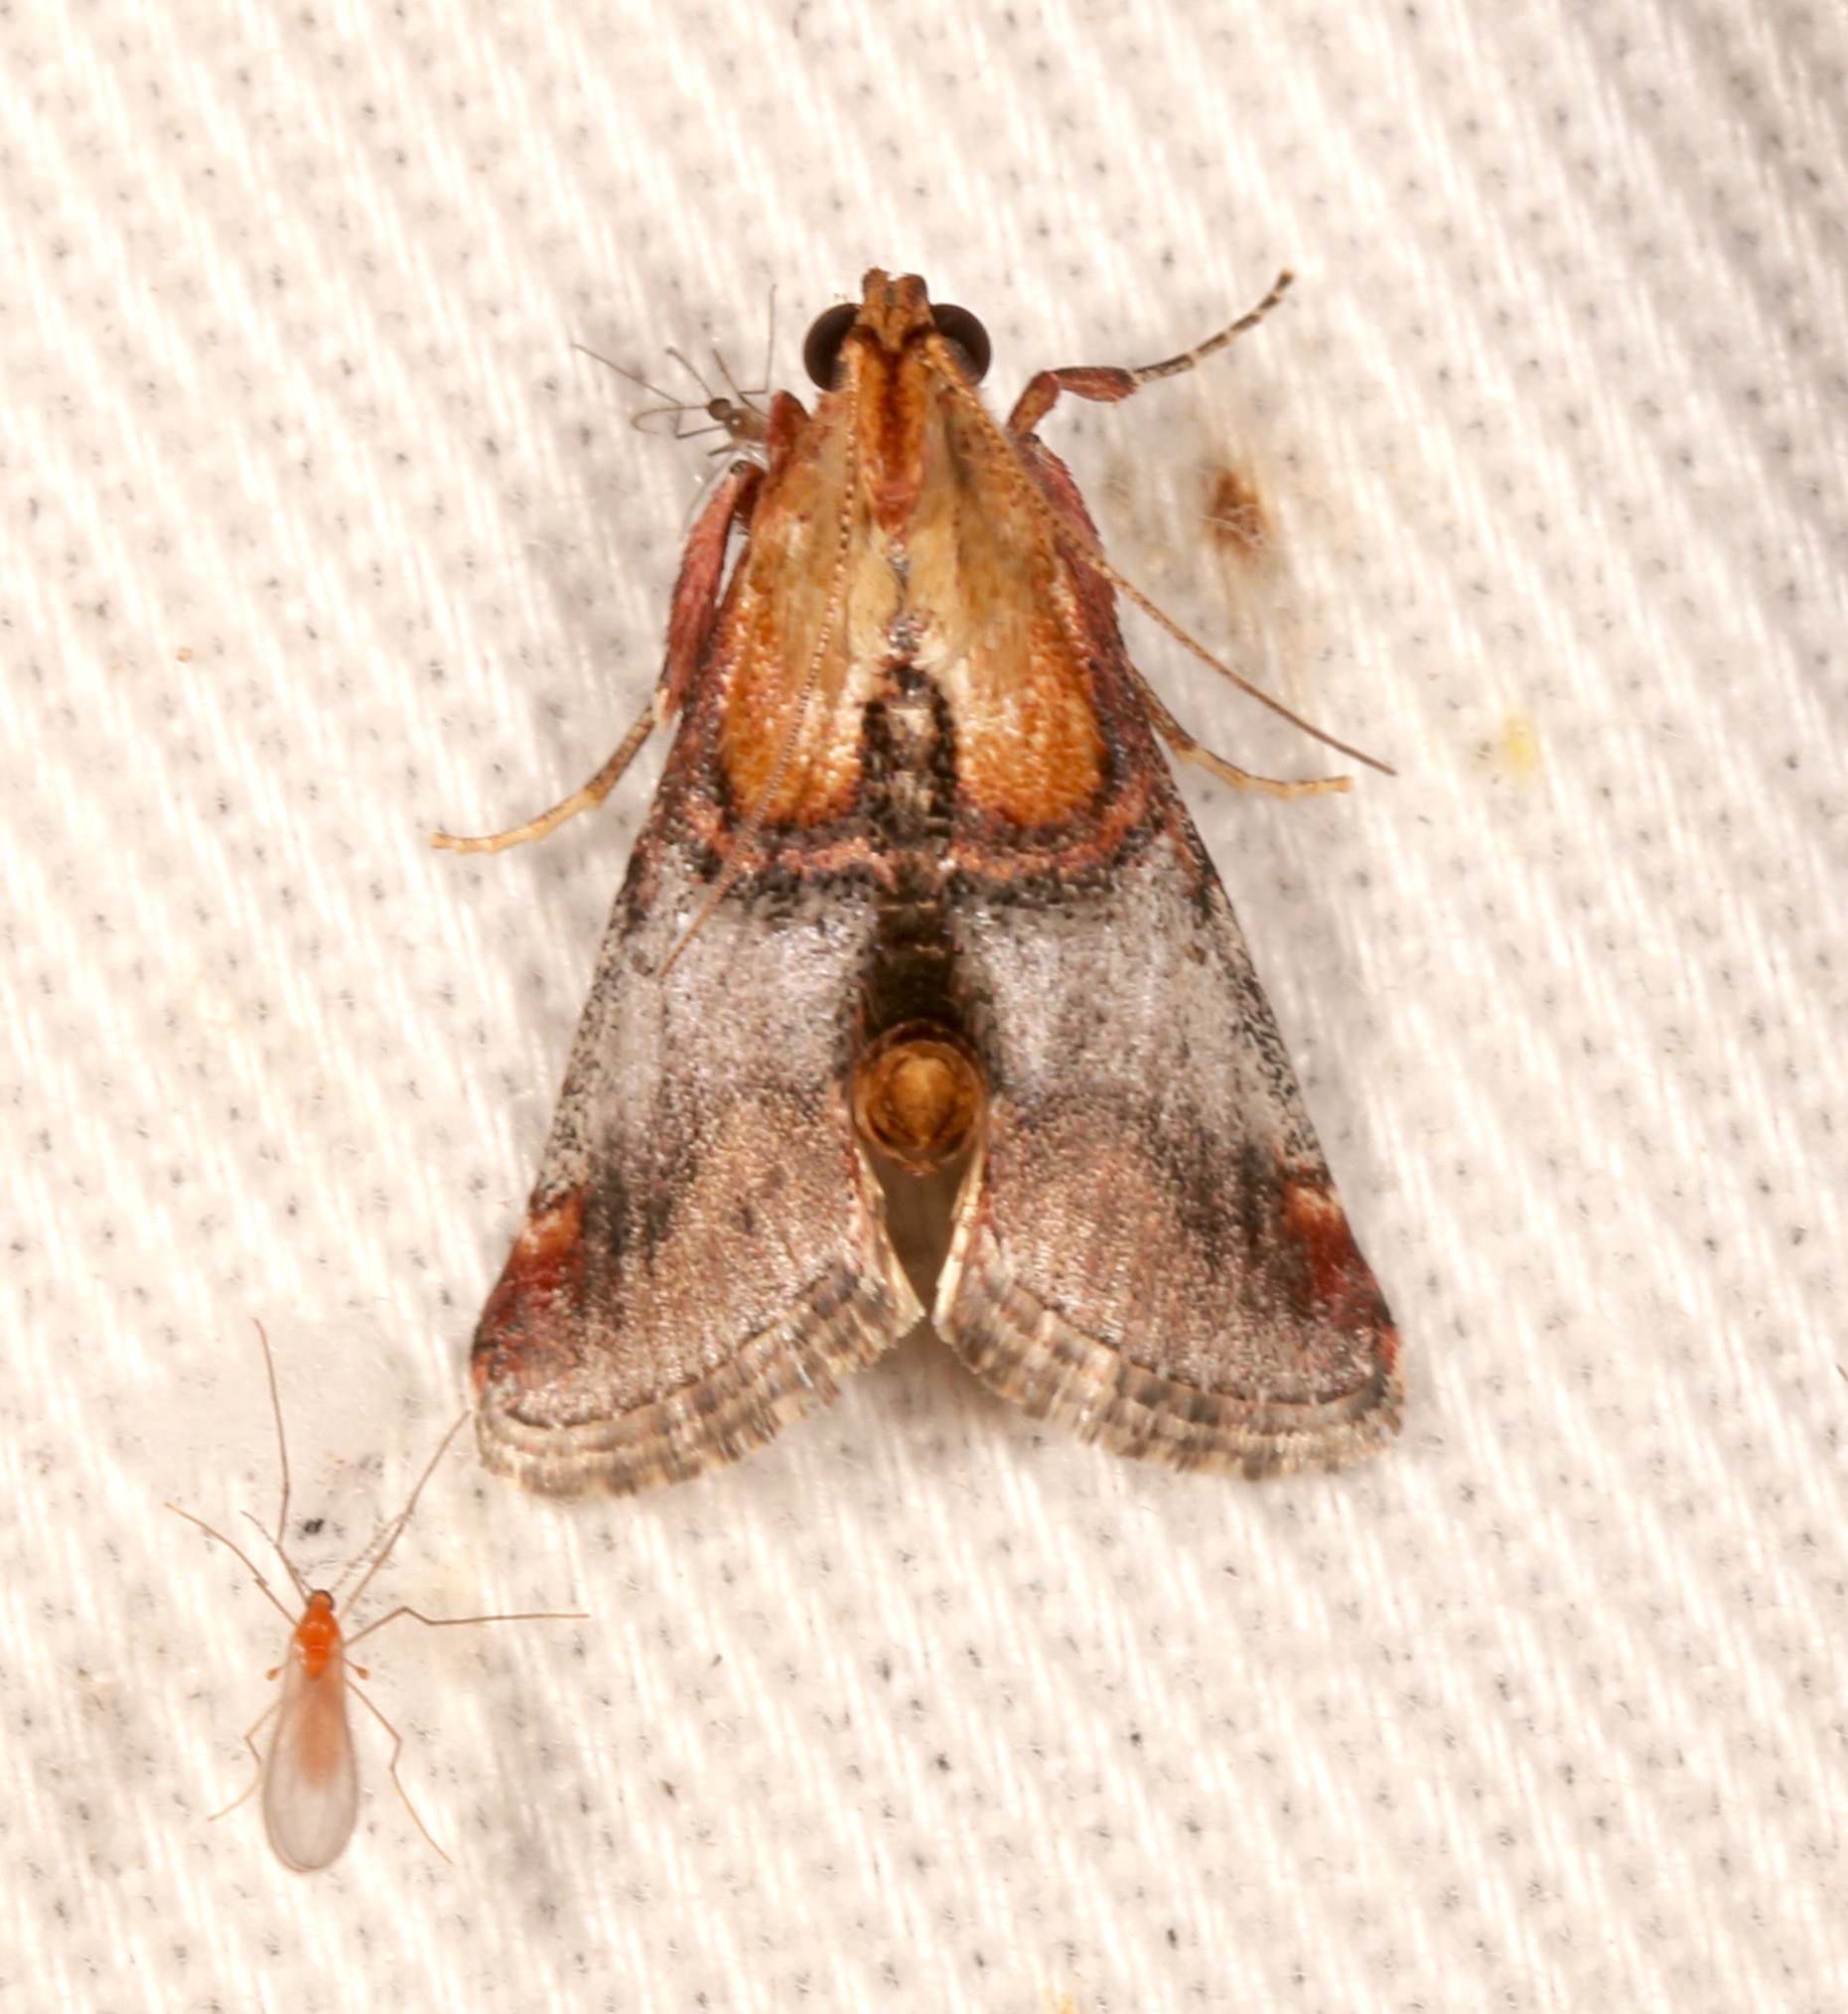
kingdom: Animalia
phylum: Arthropoda
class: Insecta
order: Lepidoptera
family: Pyralidae
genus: Cacozelia
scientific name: Cacozelia basiochrealis
